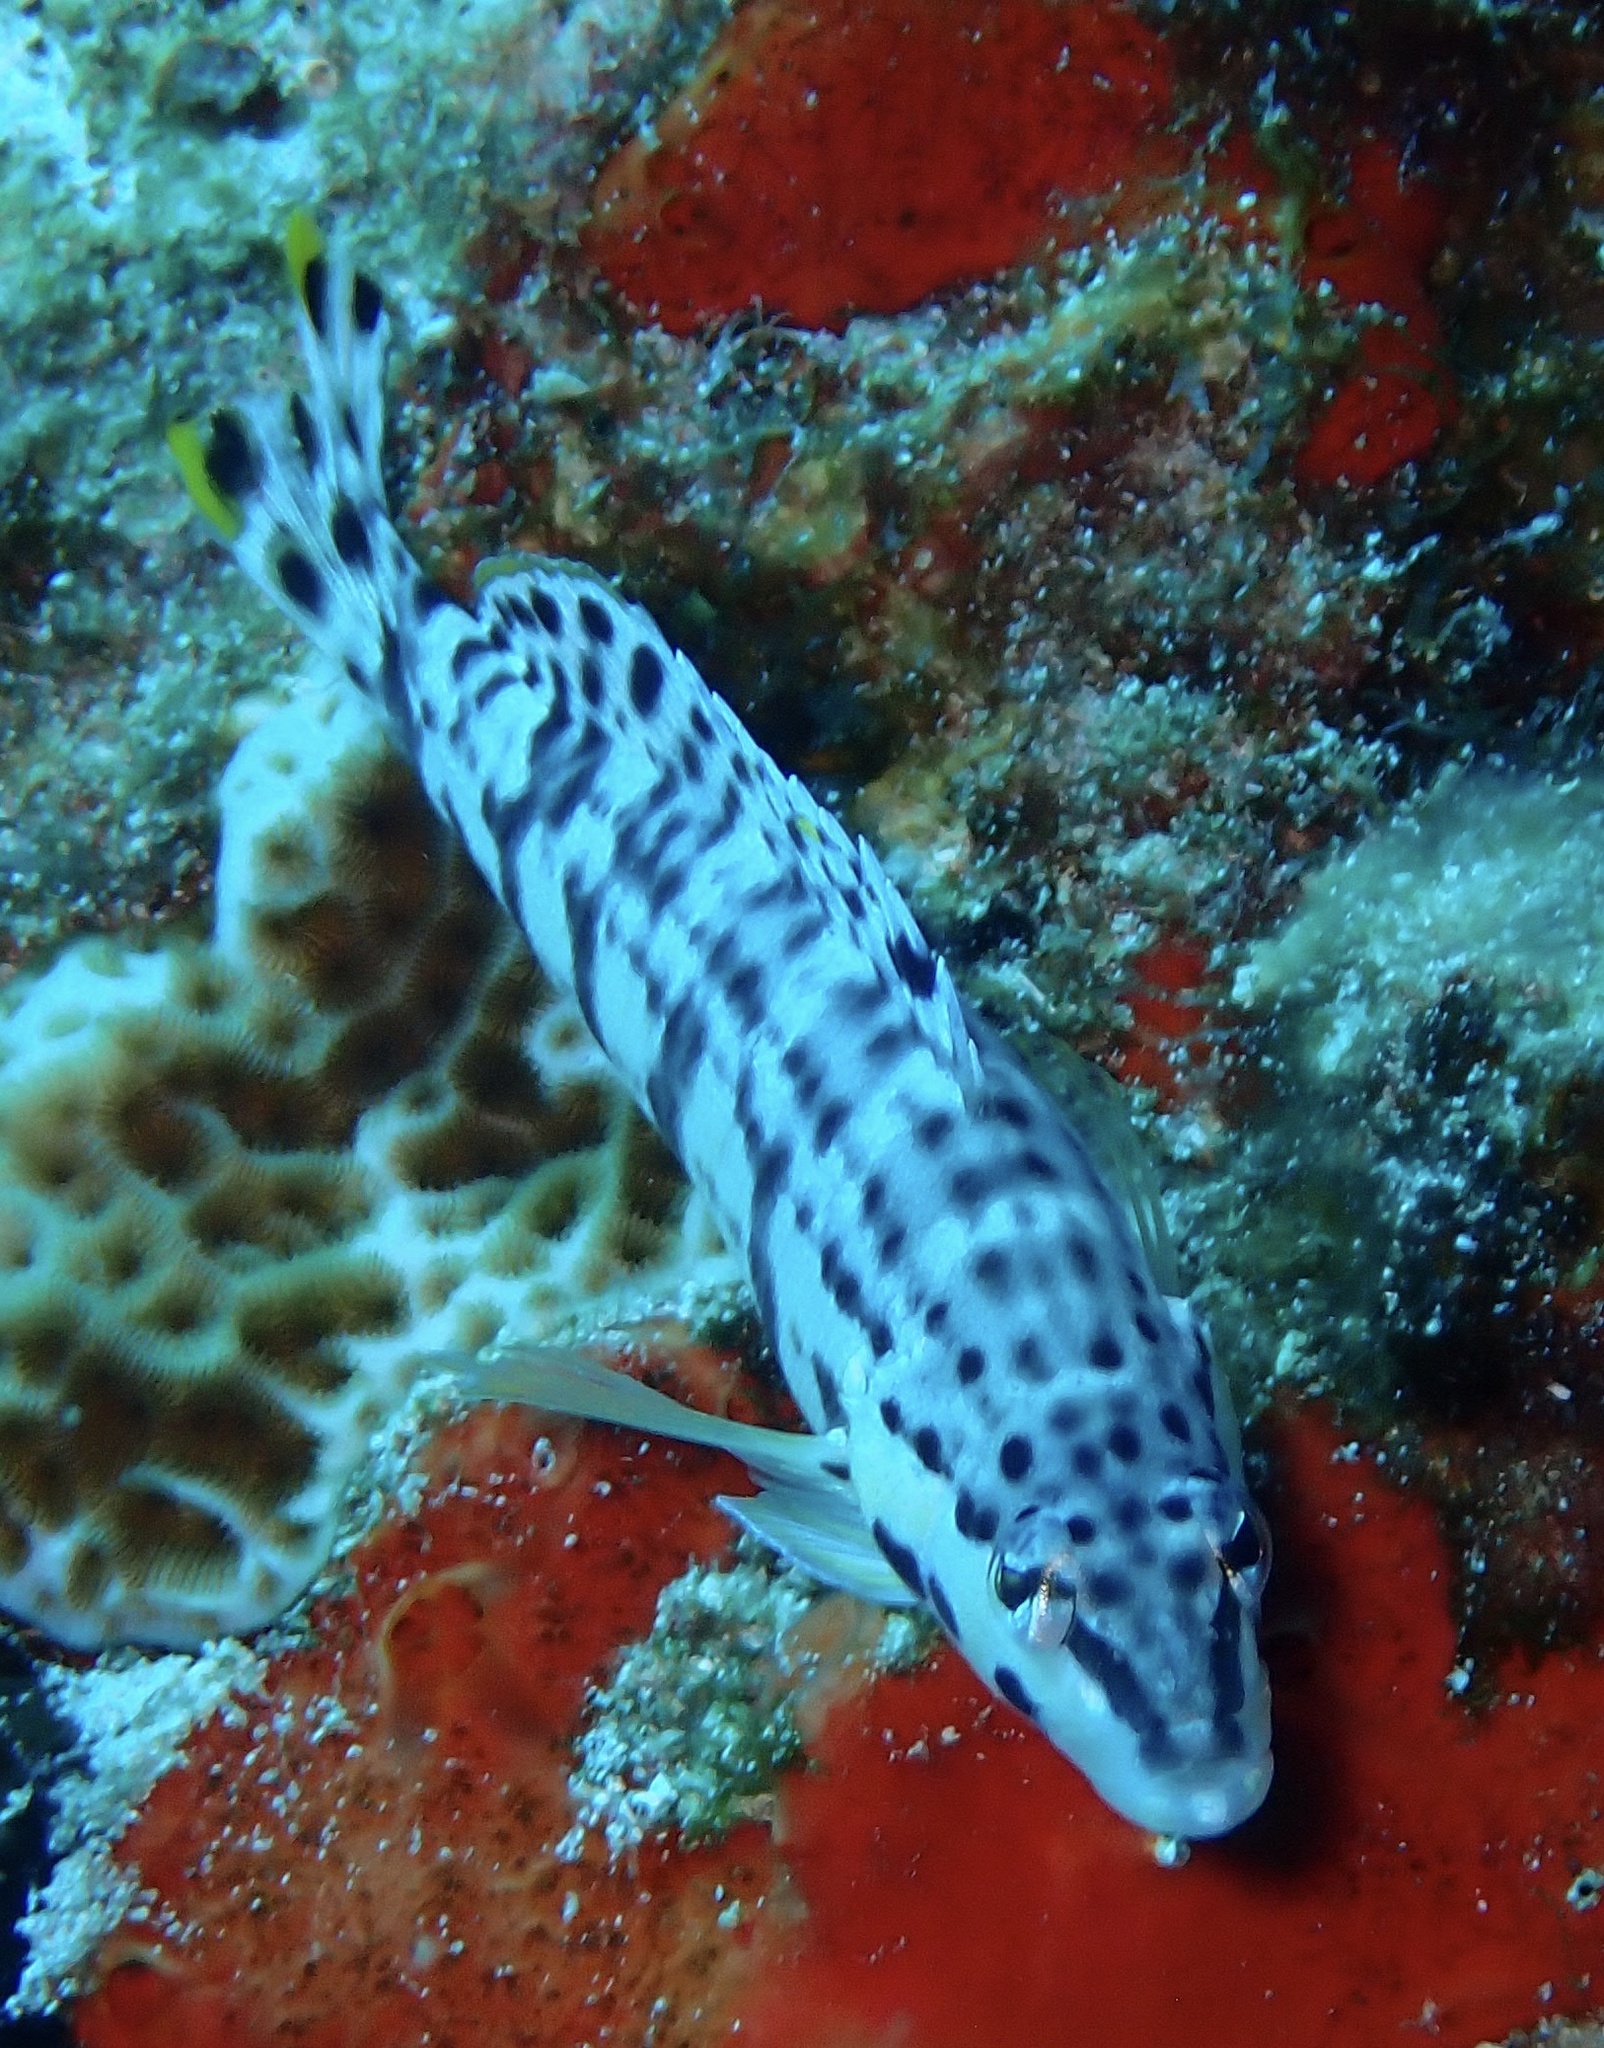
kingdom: Animalia
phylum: Chordata
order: Perciformes
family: Serranidae
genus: Serranus
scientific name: Serranus tigrinus
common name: Harlequin bass
